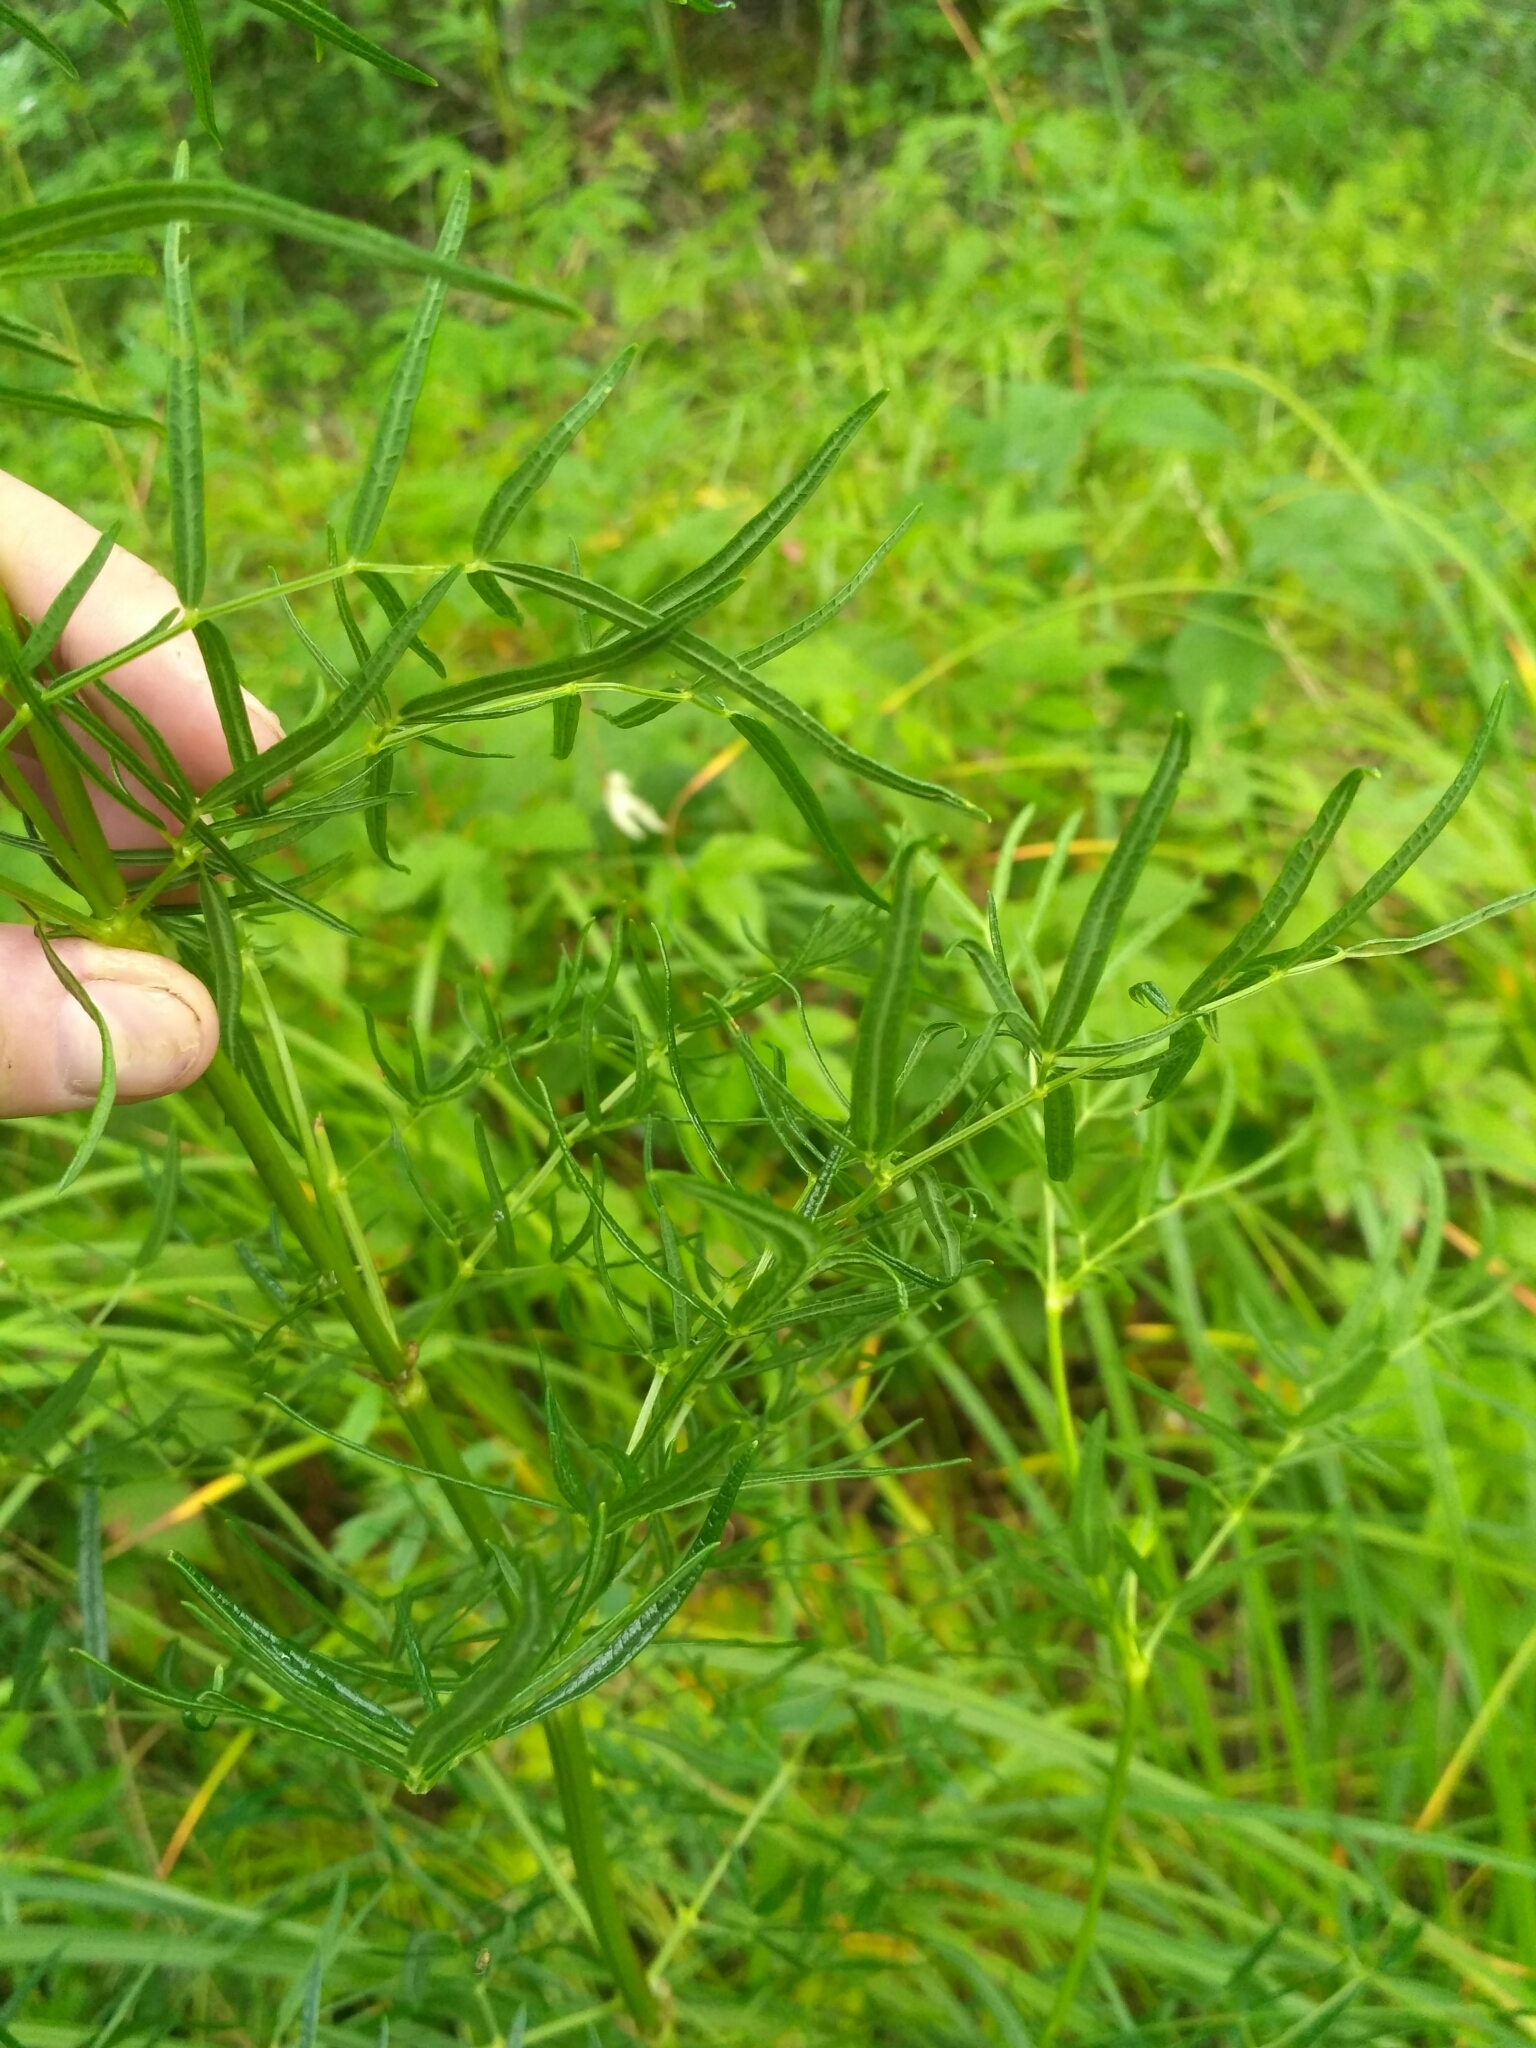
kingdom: Plantae
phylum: Tracheophyta
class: Magnoliopsida
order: Ranunculales
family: Ranunculaceae
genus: Thalictrum
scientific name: Thalictrum lucidum
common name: Shining meadow-rue
